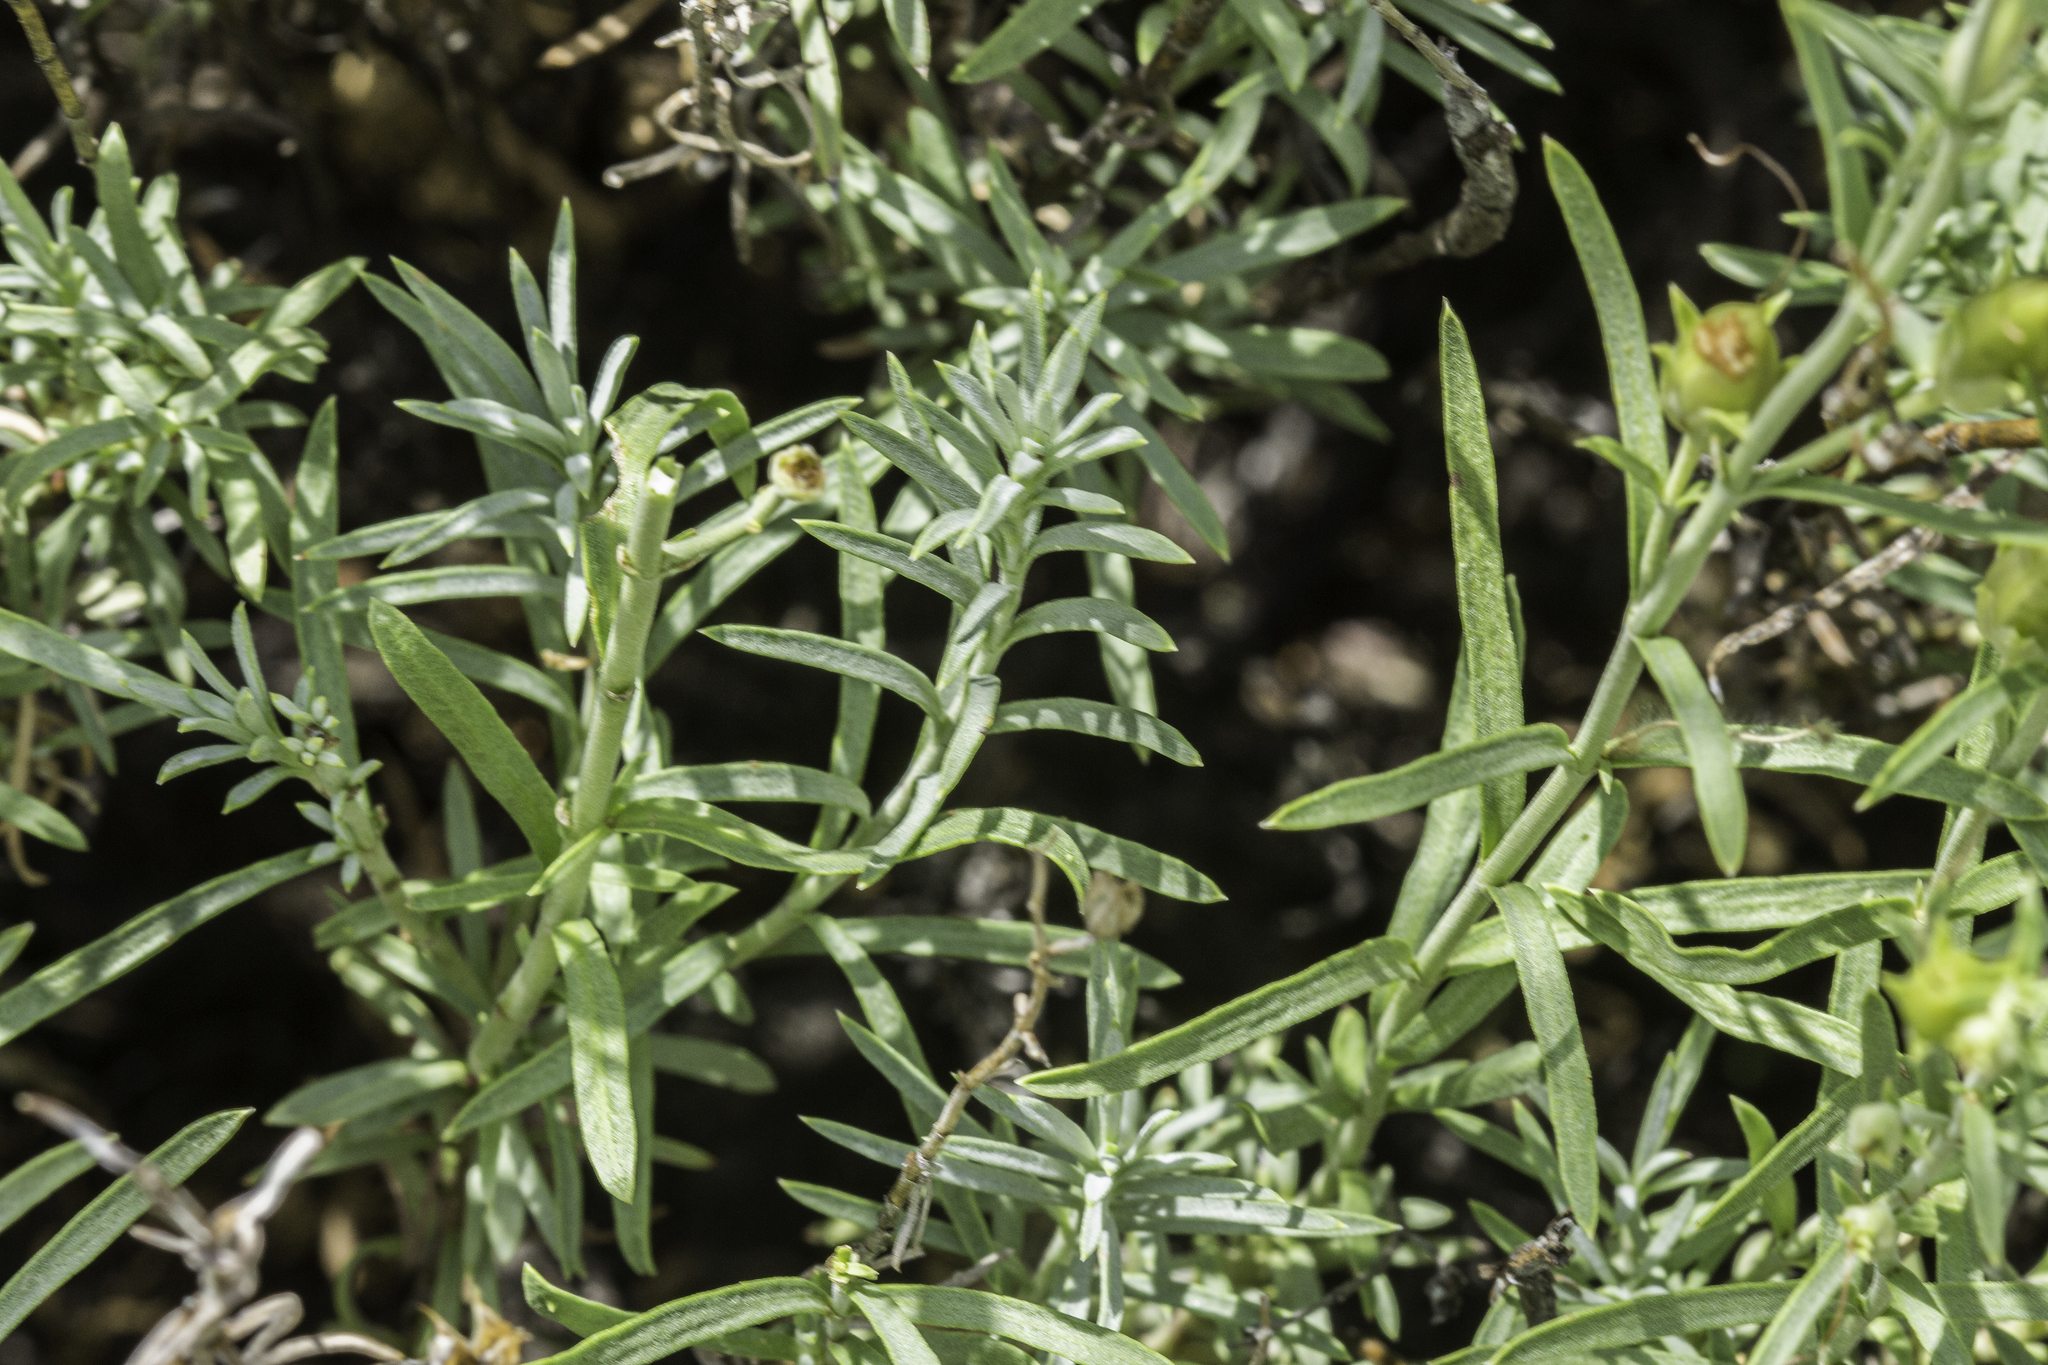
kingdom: Plantae
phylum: Tracheophyta
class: Magnoliopsida
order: Lamiales
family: Plantaginaceae
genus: Penstemon
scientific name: Penstemon linarioides
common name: Siler's penstemon
